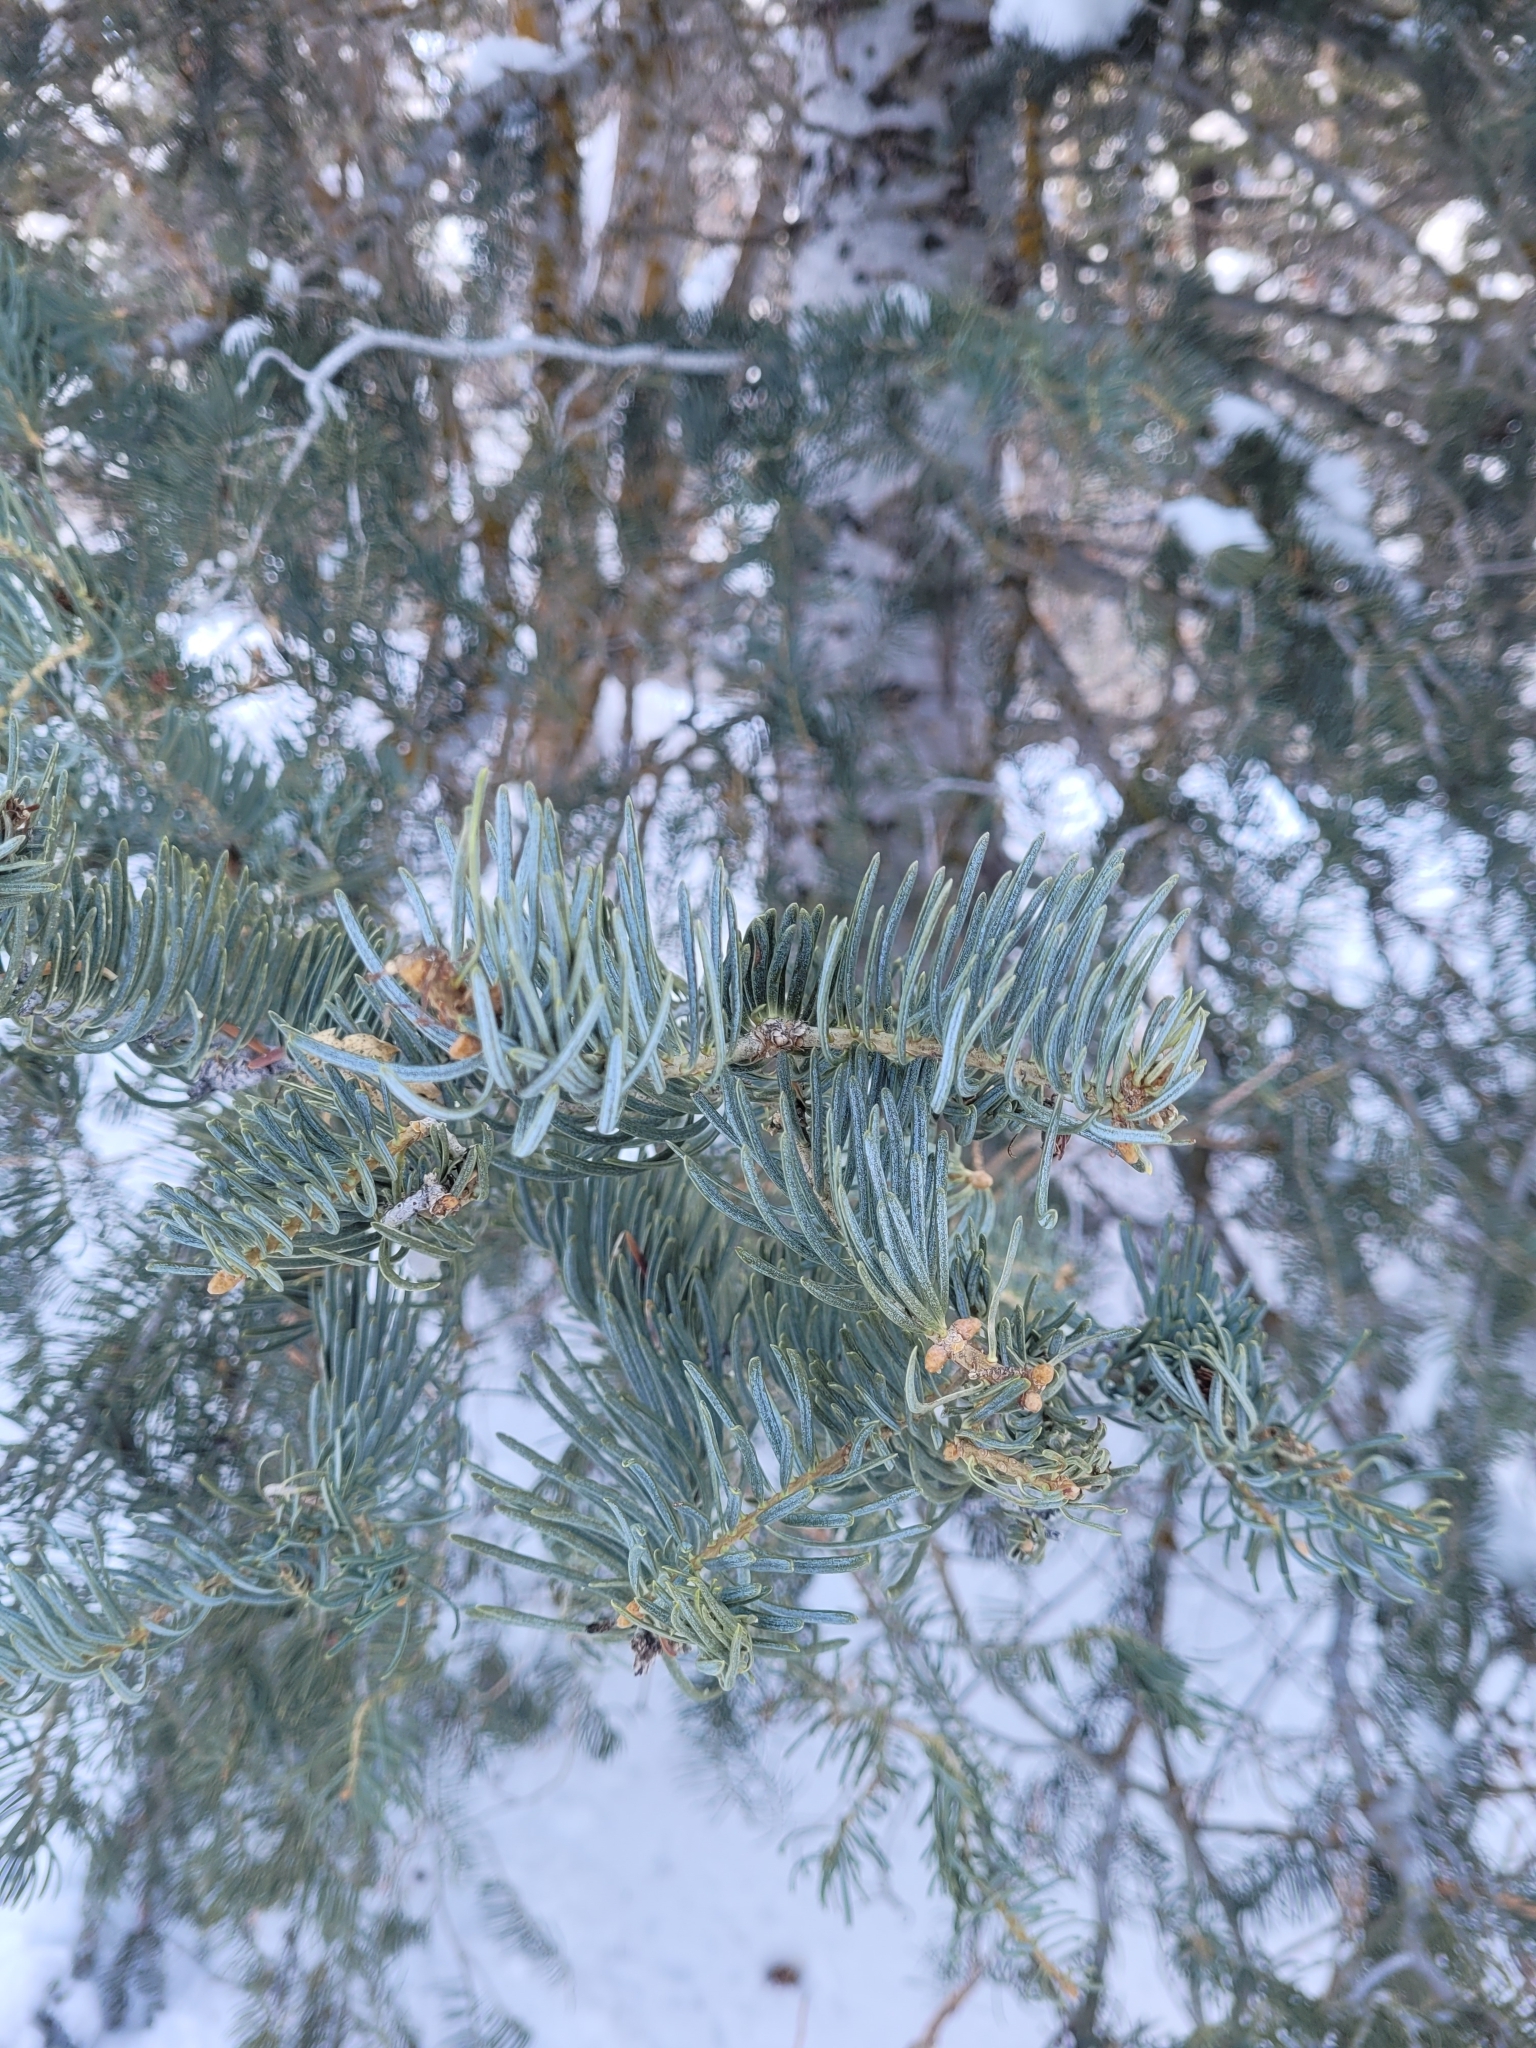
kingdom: Plantae
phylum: Tracheophyta
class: Pinopsida
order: Pinales
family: Pinaceae
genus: Abies
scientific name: Abies concolor
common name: Colorado fir
